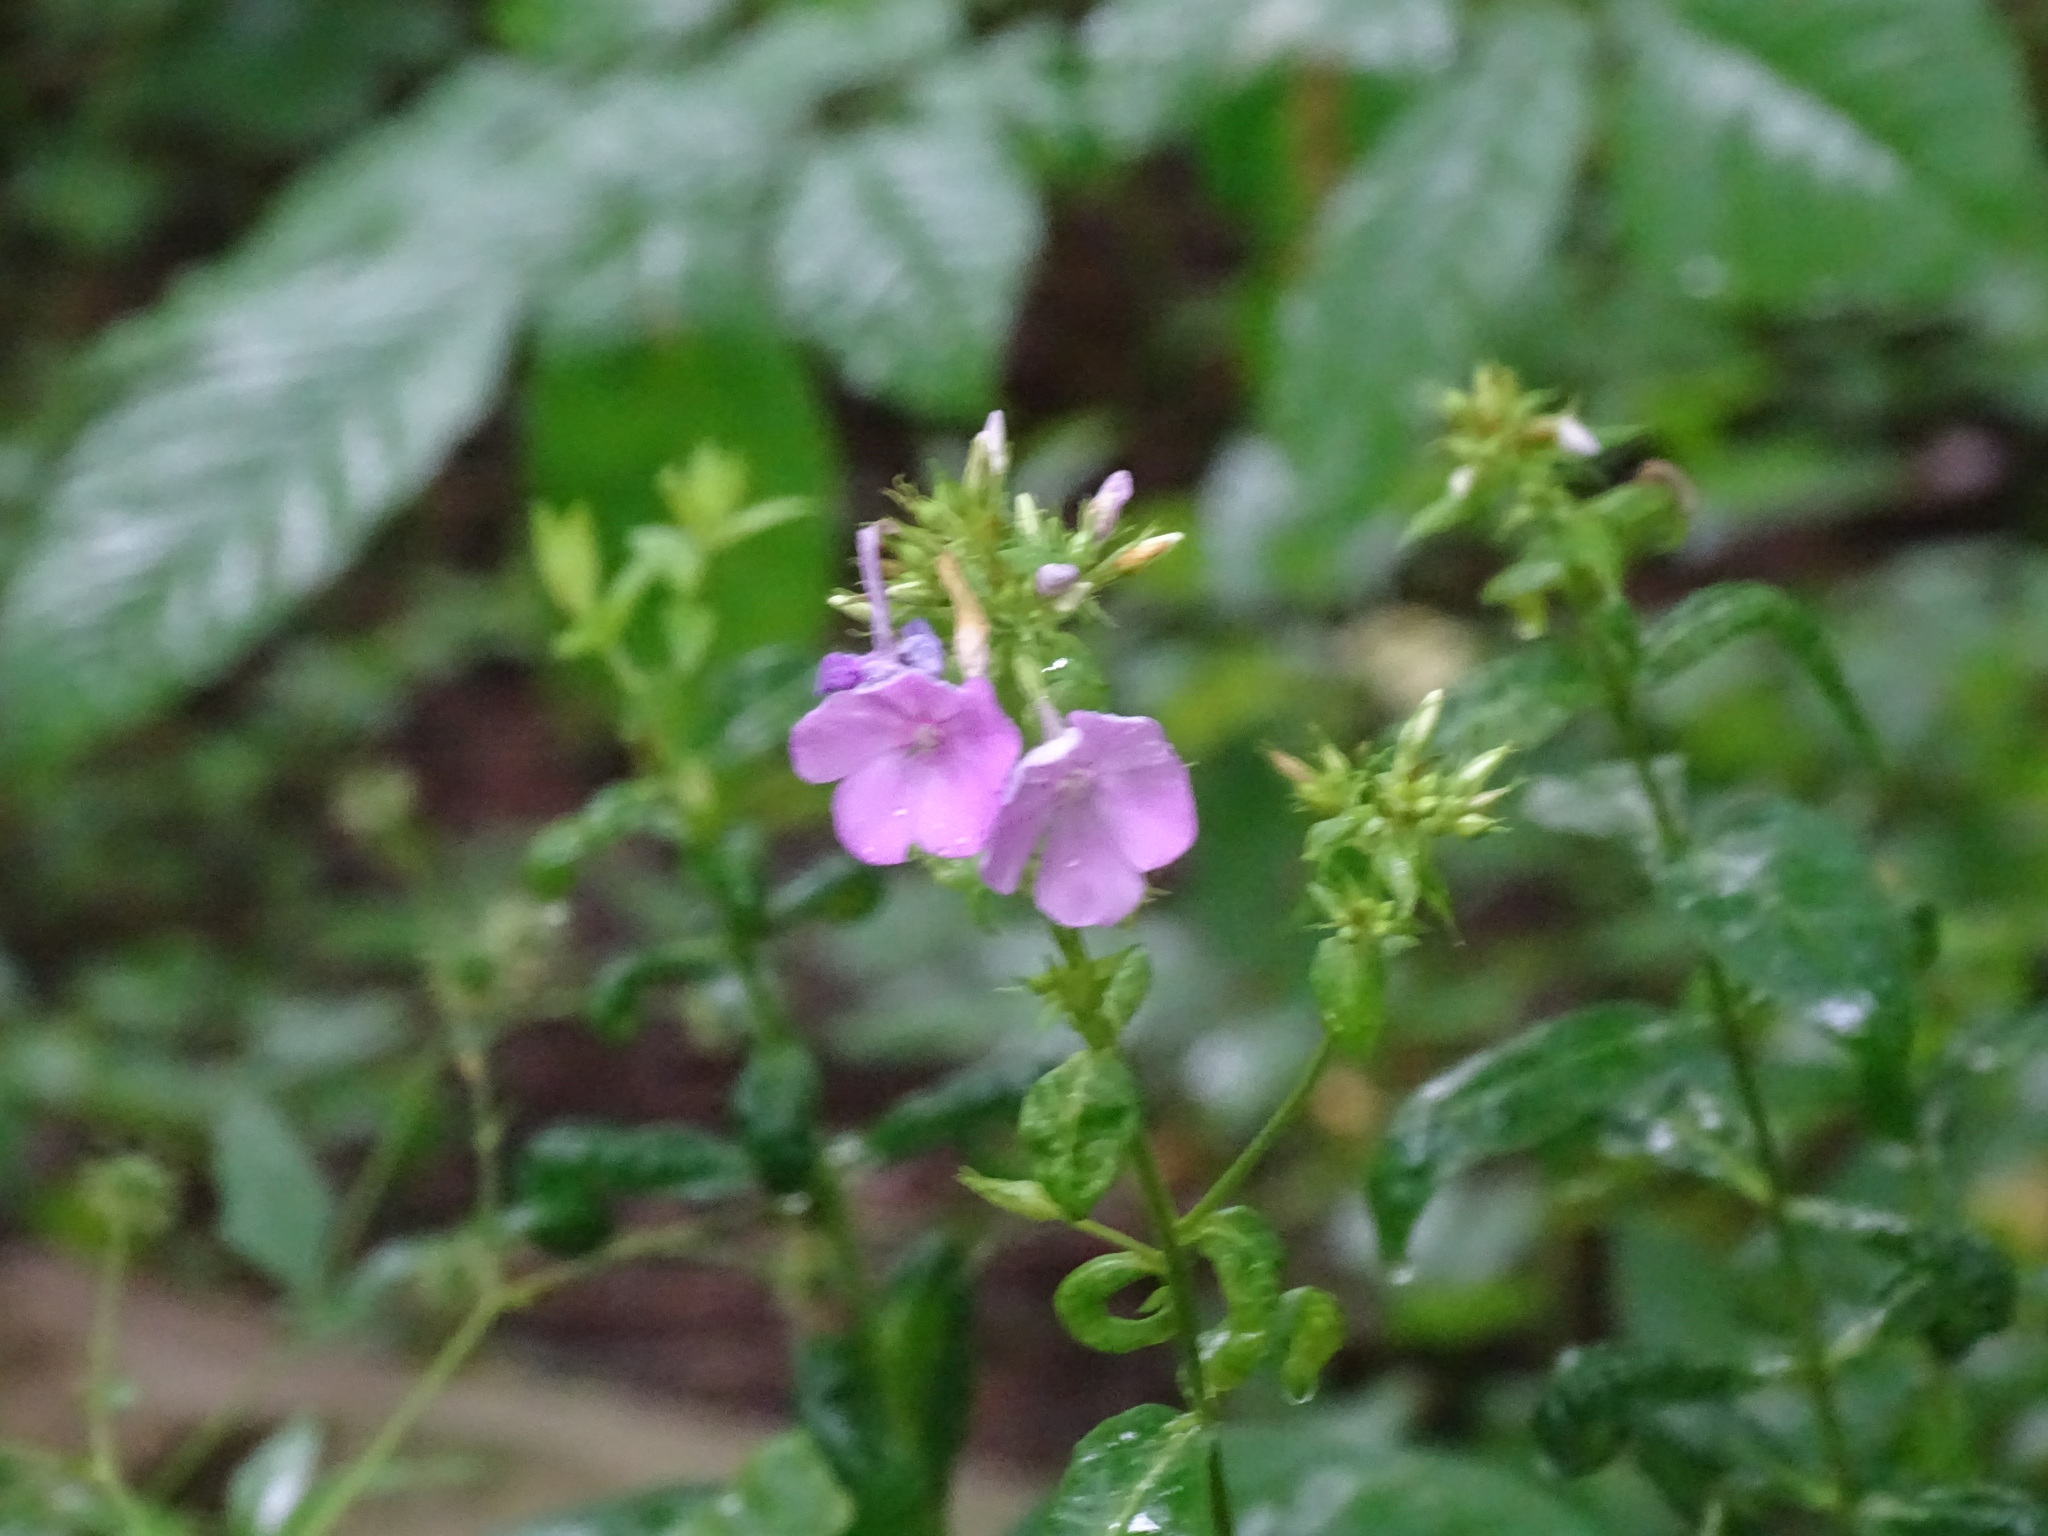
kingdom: Plantae
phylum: Tracheophyta
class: Magnoliopsida
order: Ericales
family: Polemoniaceae
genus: Phlox
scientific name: Phlox paniculata
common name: Fall phlox
